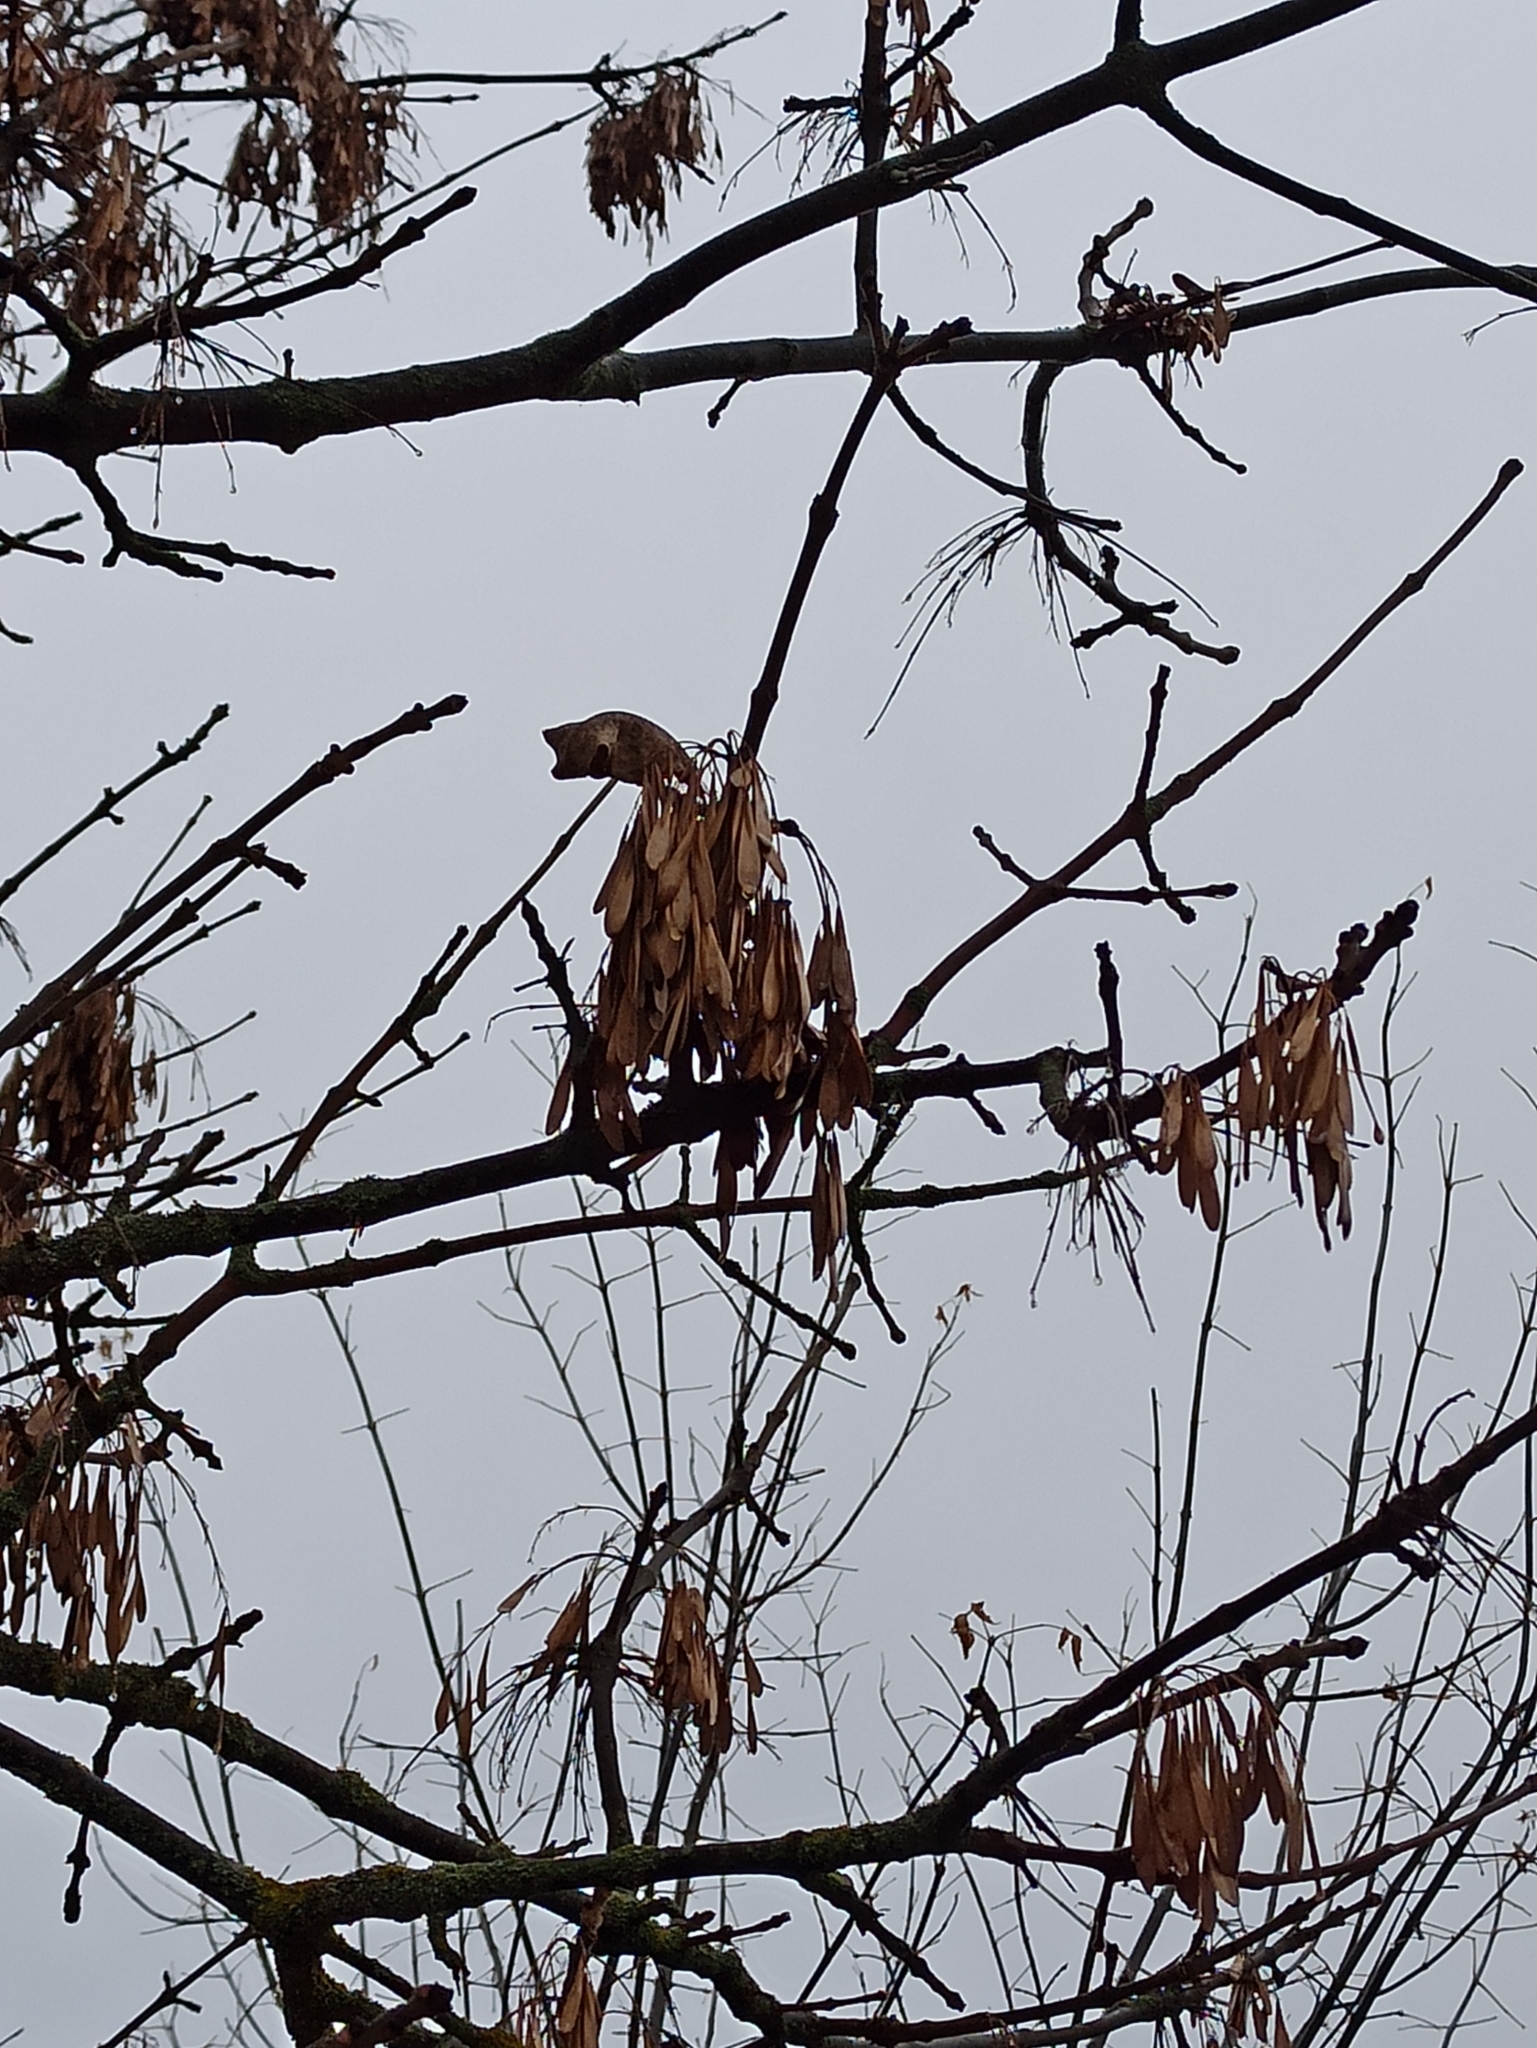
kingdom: Plantae
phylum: Tracheophyta
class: Magnoliopsida
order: Lamiales
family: Oleaceae
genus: Fraxinus
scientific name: Fraxinus excelsior
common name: European ash
